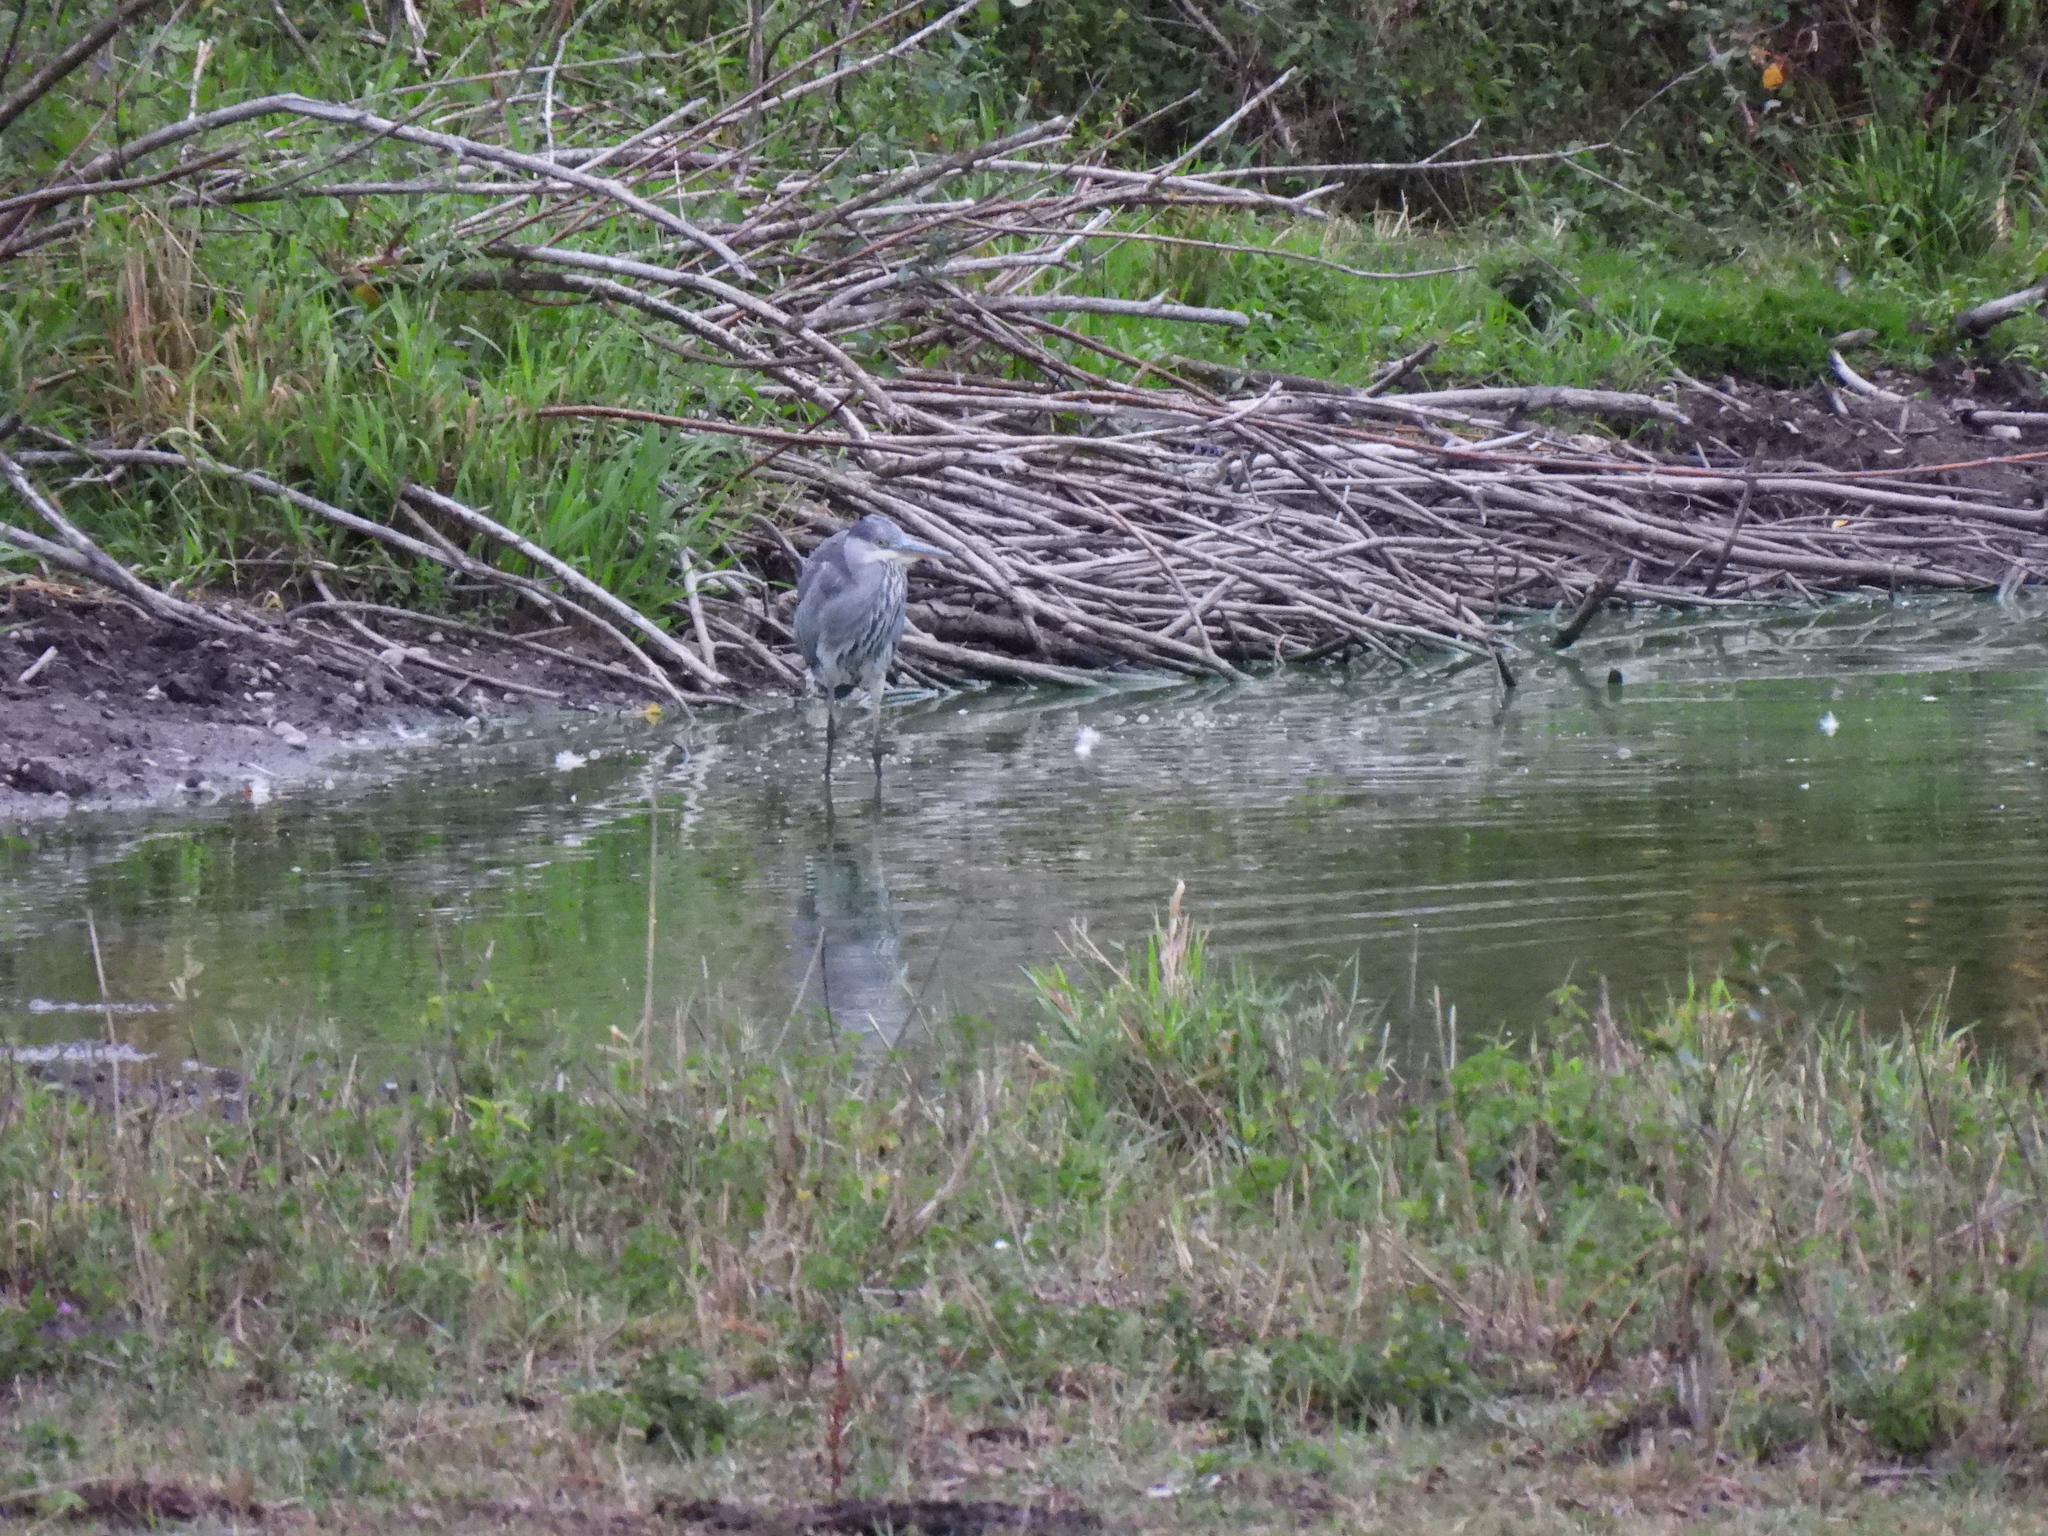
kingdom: Animalia
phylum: Chordata
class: Aves
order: Pelecaniformes
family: Ardeidae
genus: Ardea
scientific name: Ardea cinerea
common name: Grey heron
